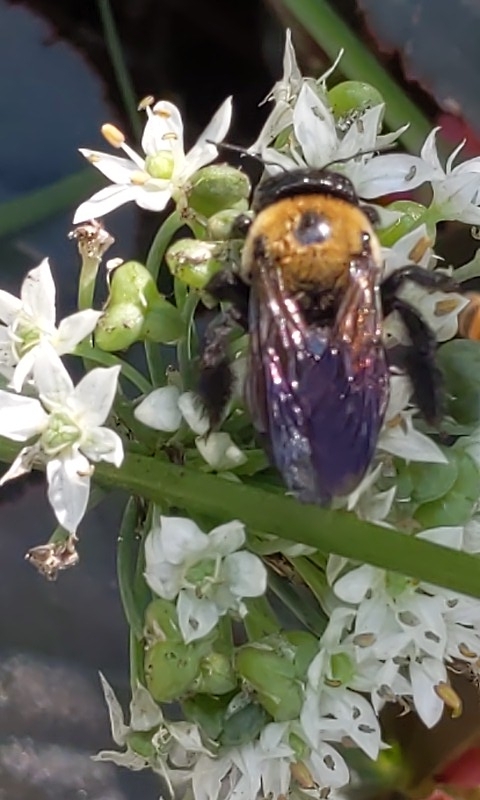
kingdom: Animalia
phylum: Arthropoda
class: Insecta
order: Hymenoptera
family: Apidae
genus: Xylocopa
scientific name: Xylocopa virginica
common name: Carpenter bee
